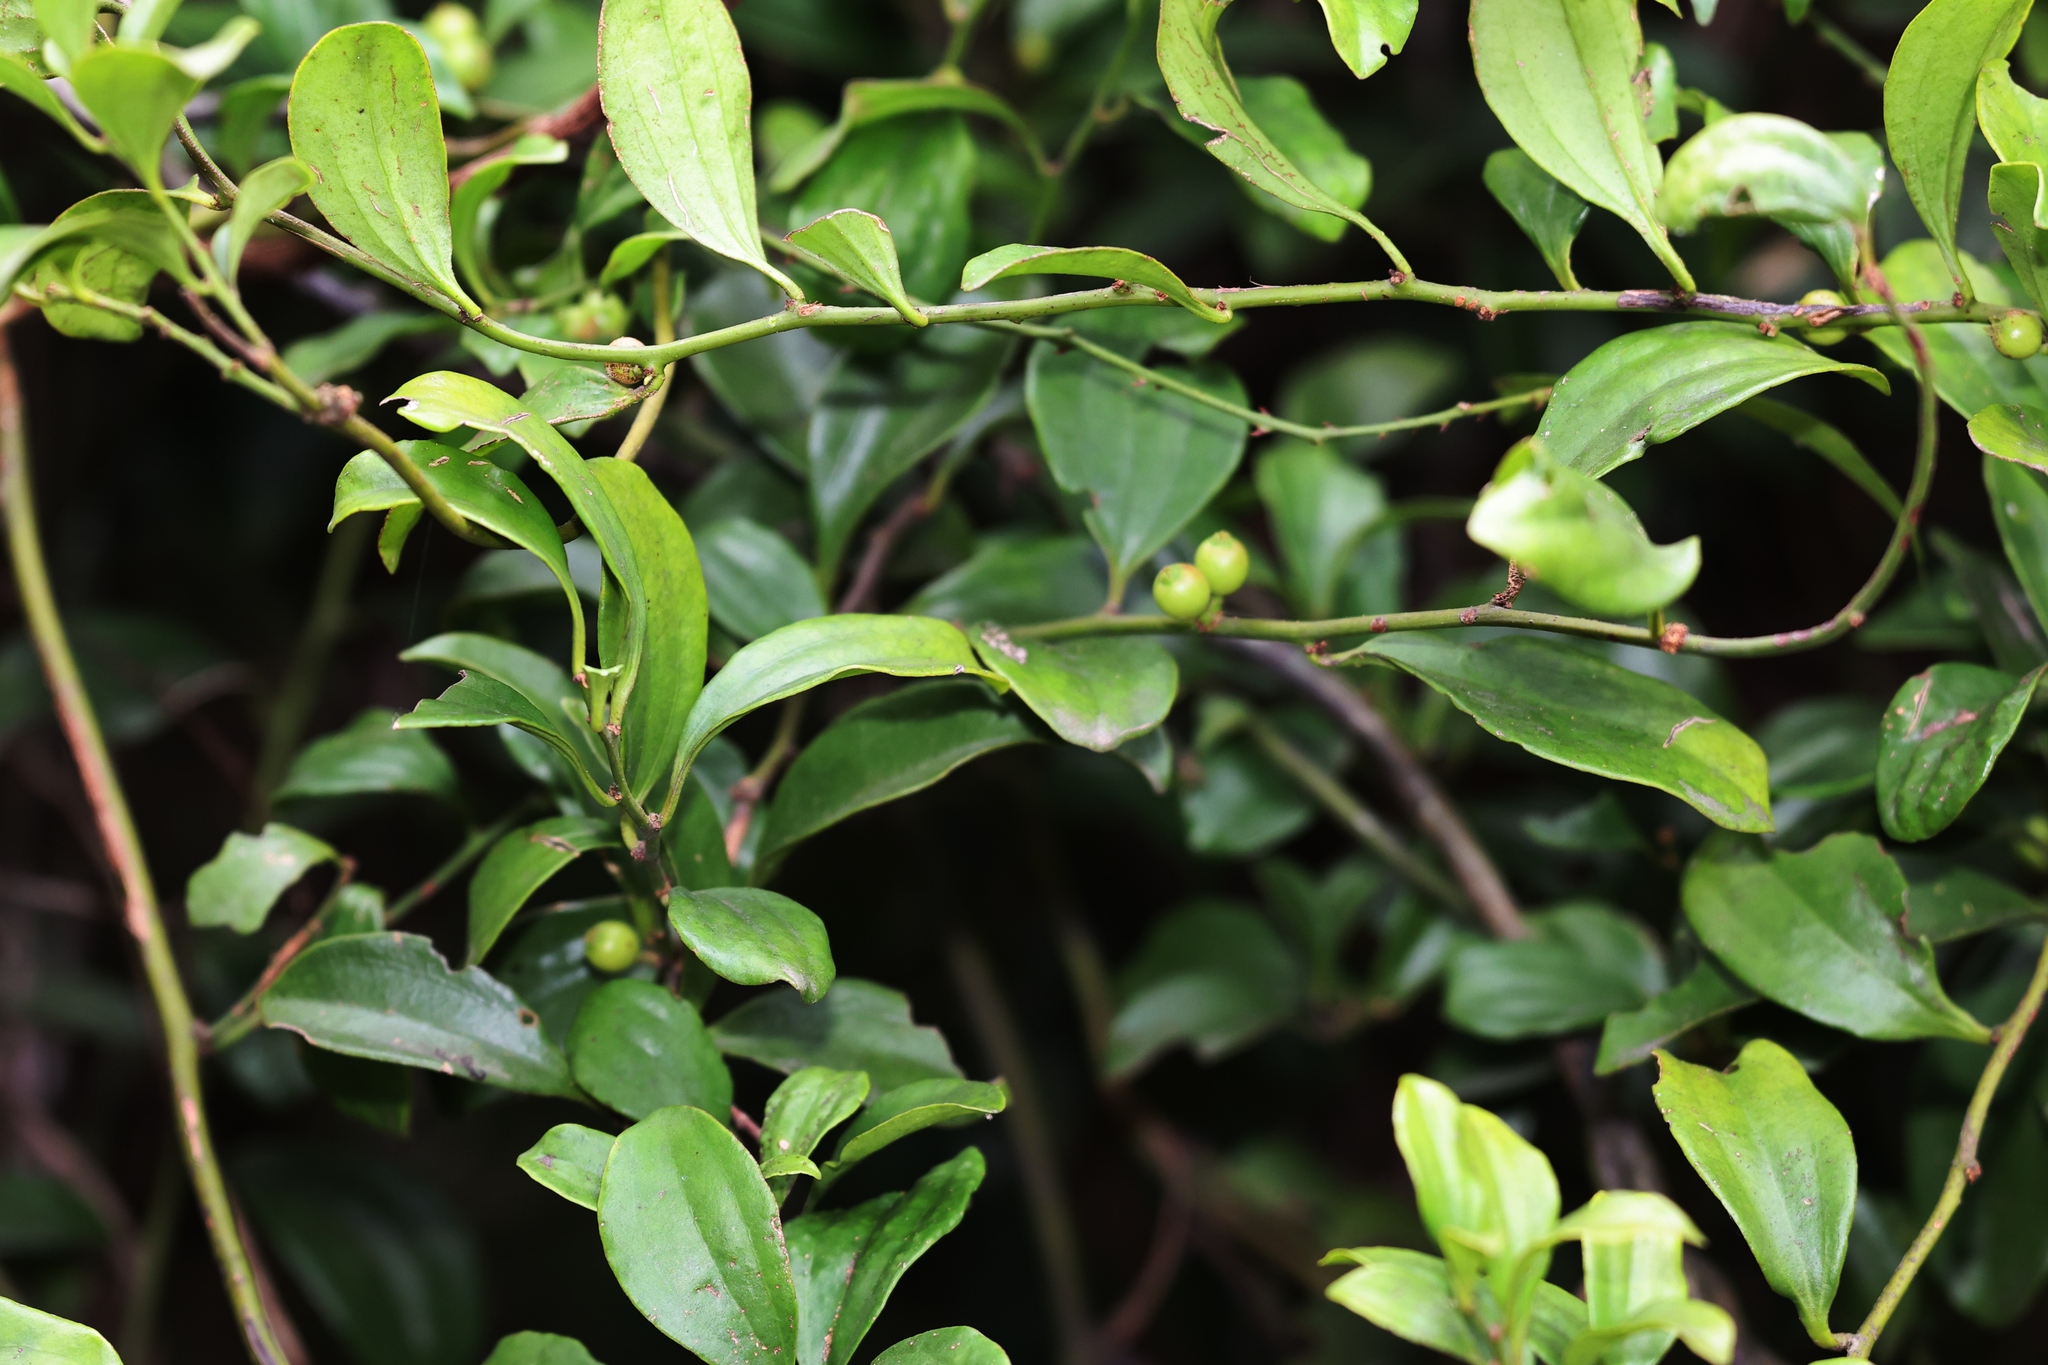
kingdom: Plantae
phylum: Tracheophyta
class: Magnoliopsida
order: Santalales
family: Amphorogynaceae
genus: Dendrotrophe
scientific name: Dendrotrophe varians
